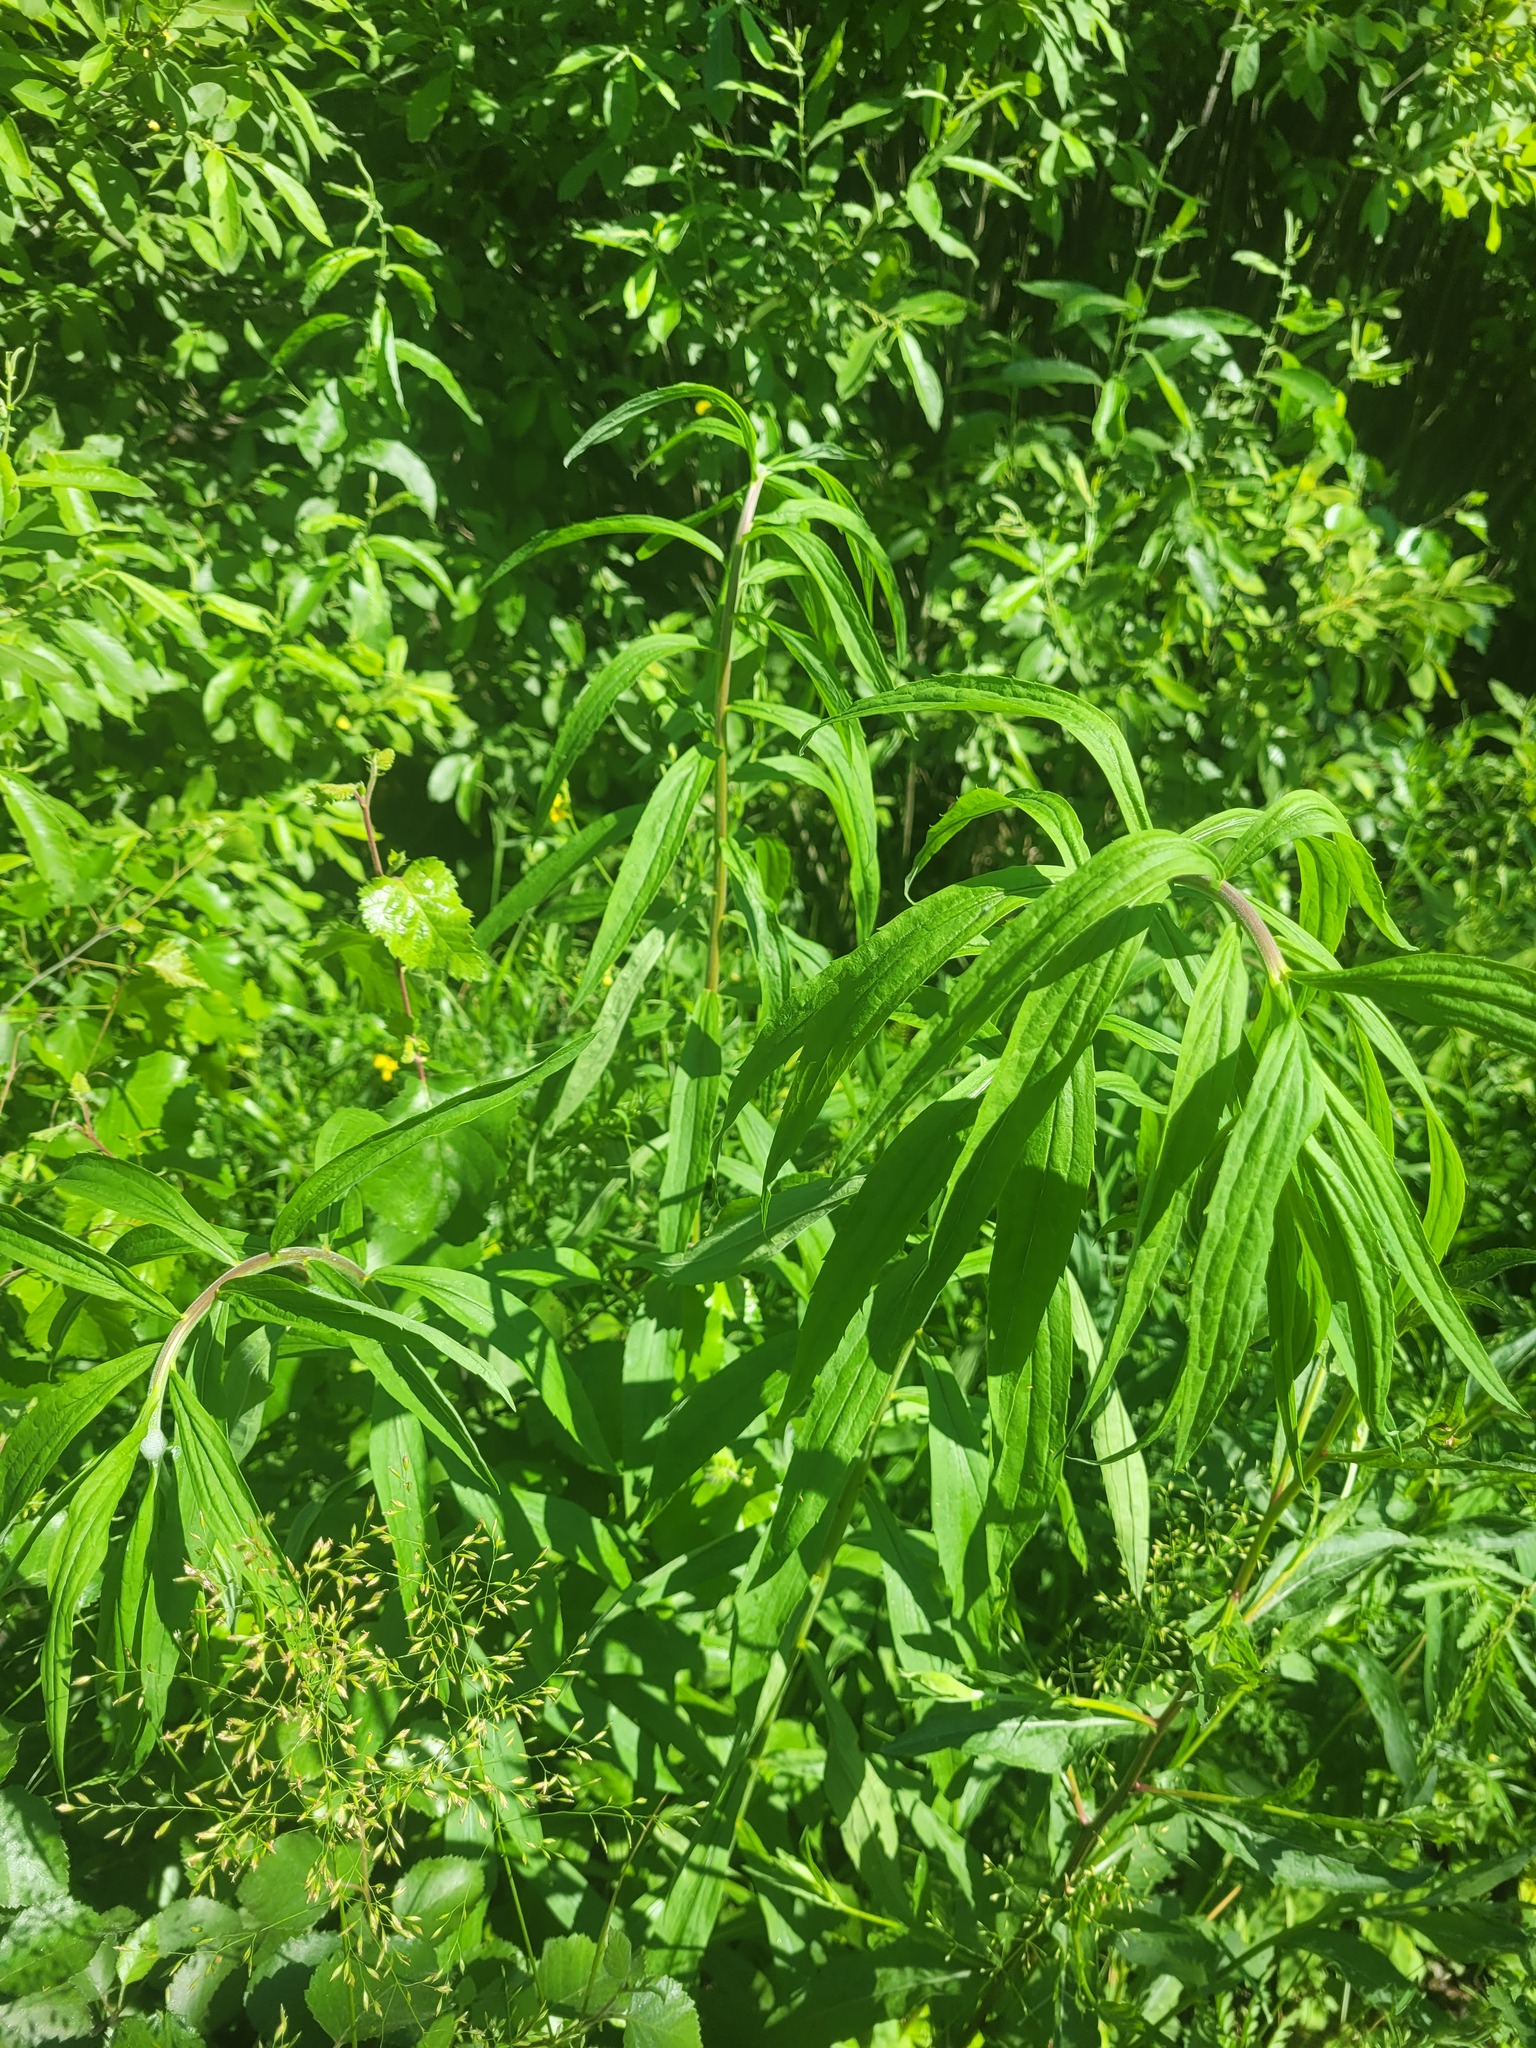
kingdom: Plantae
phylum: Tracheophyta
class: Magnoliopsida
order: Asterales
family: Asteraceae
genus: Solidago
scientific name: Solidago canadensis
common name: Canada goldenrod
